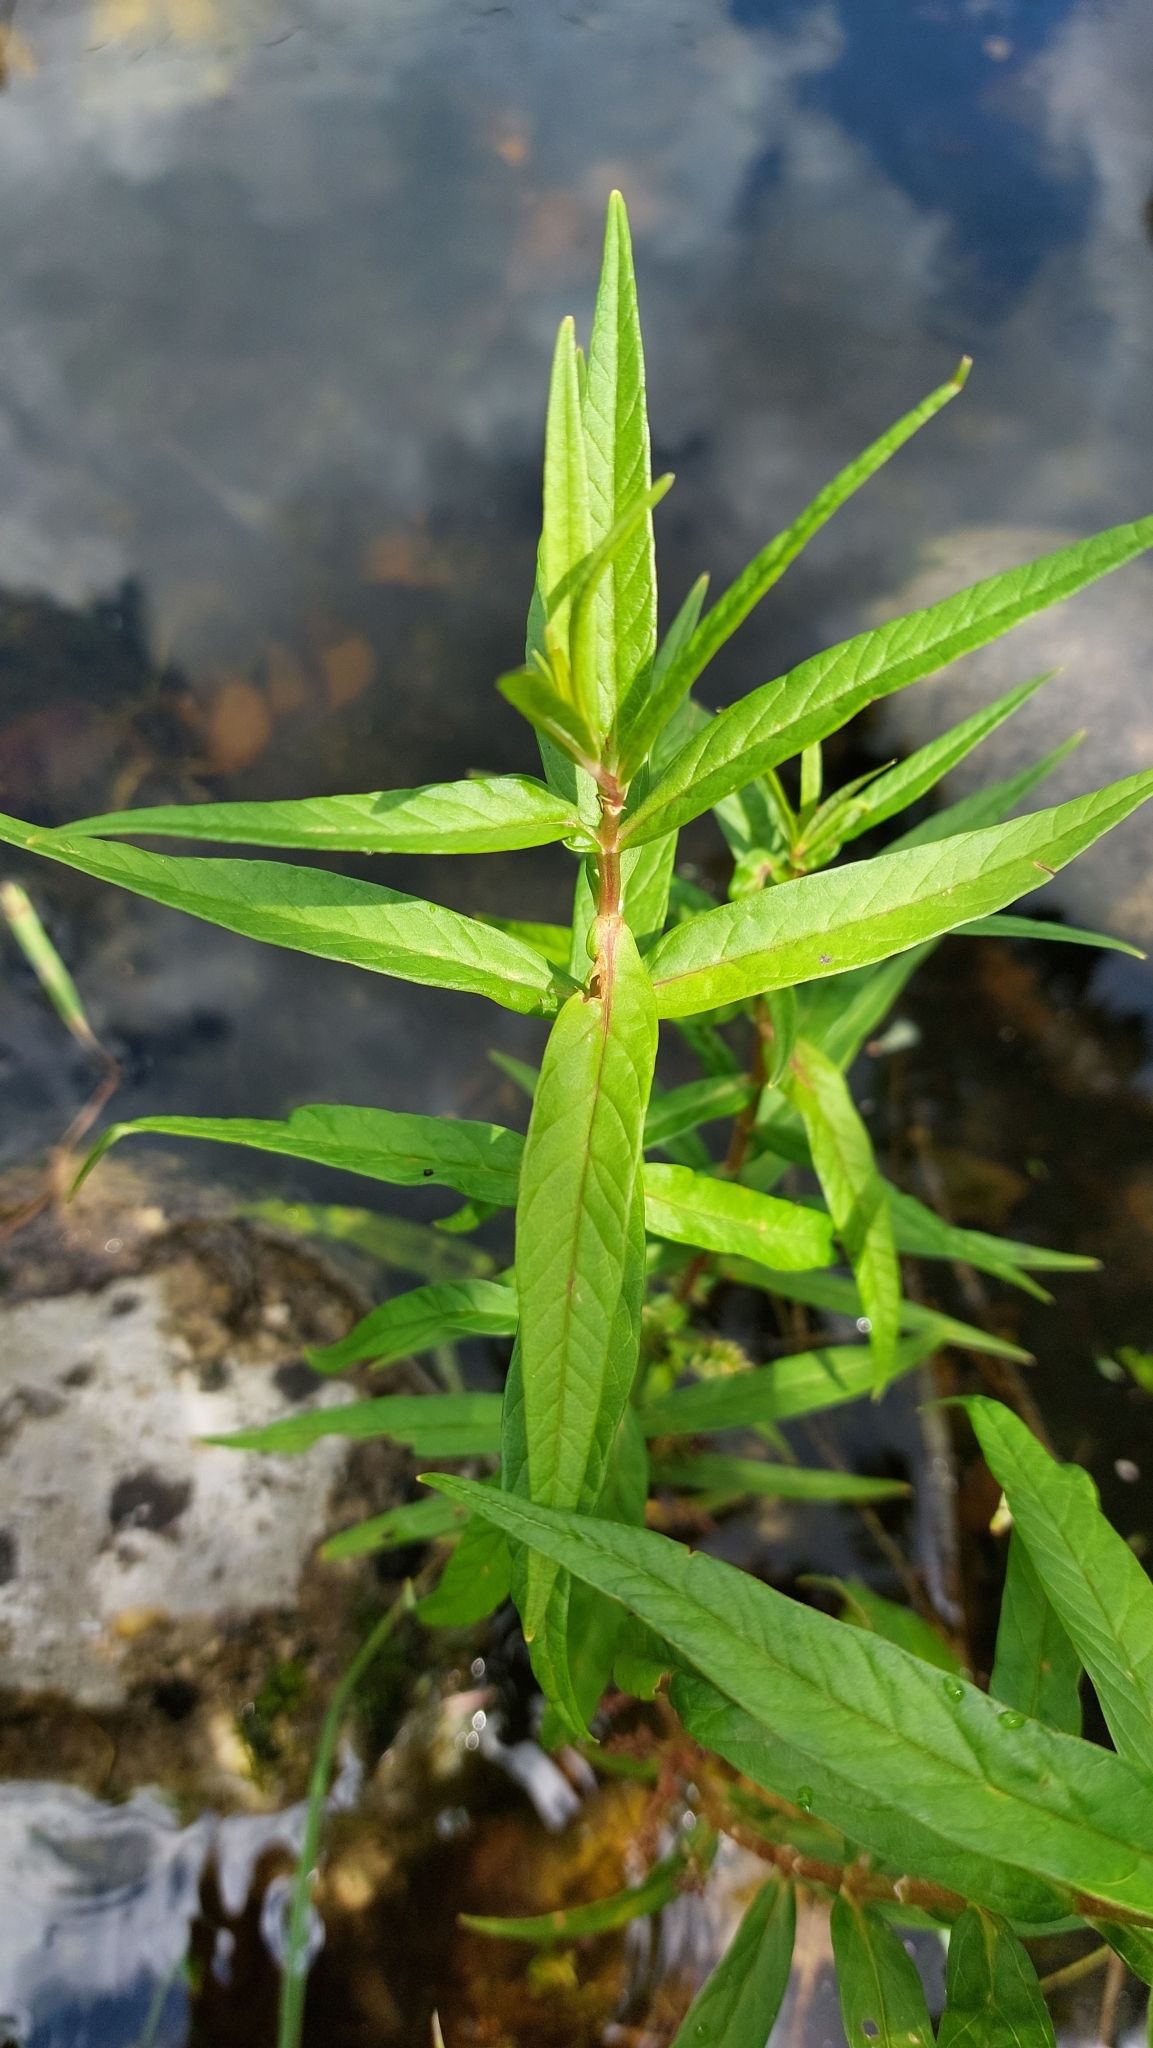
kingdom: Plantae
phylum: Tracheophyta
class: Magnoliopsida
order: Ericales
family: Primulaceae
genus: Lysimachia
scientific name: Lysimachia thyrsiflora
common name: Tufted loosestrife
